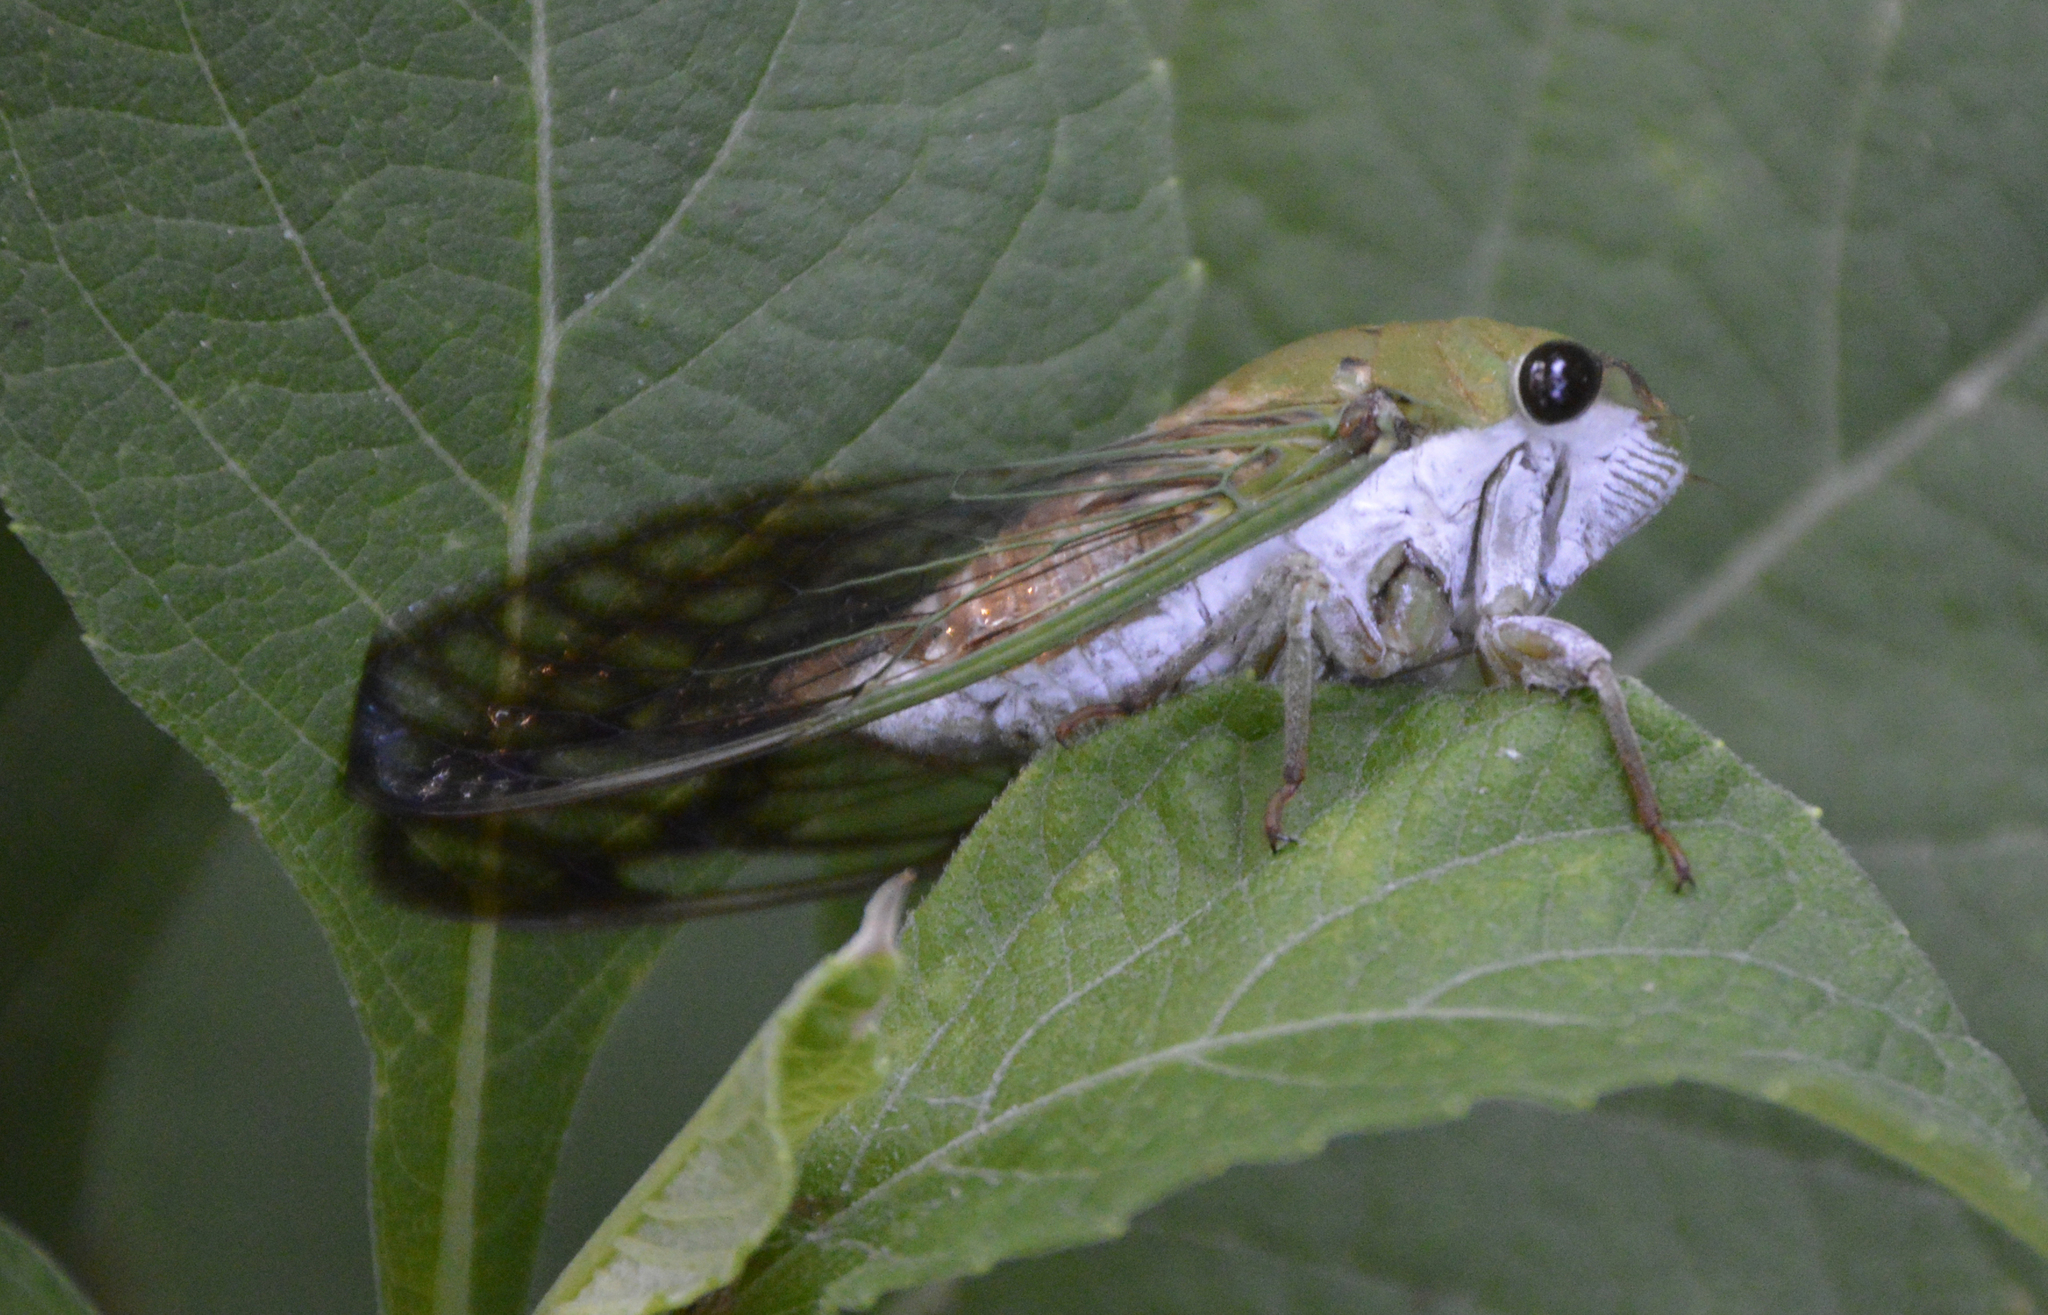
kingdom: Animalia
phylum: Arthropoda
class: Insecta
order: Hemiptera
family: Cicadidae
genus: Neotibicen
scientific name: Neotibicen superbus
